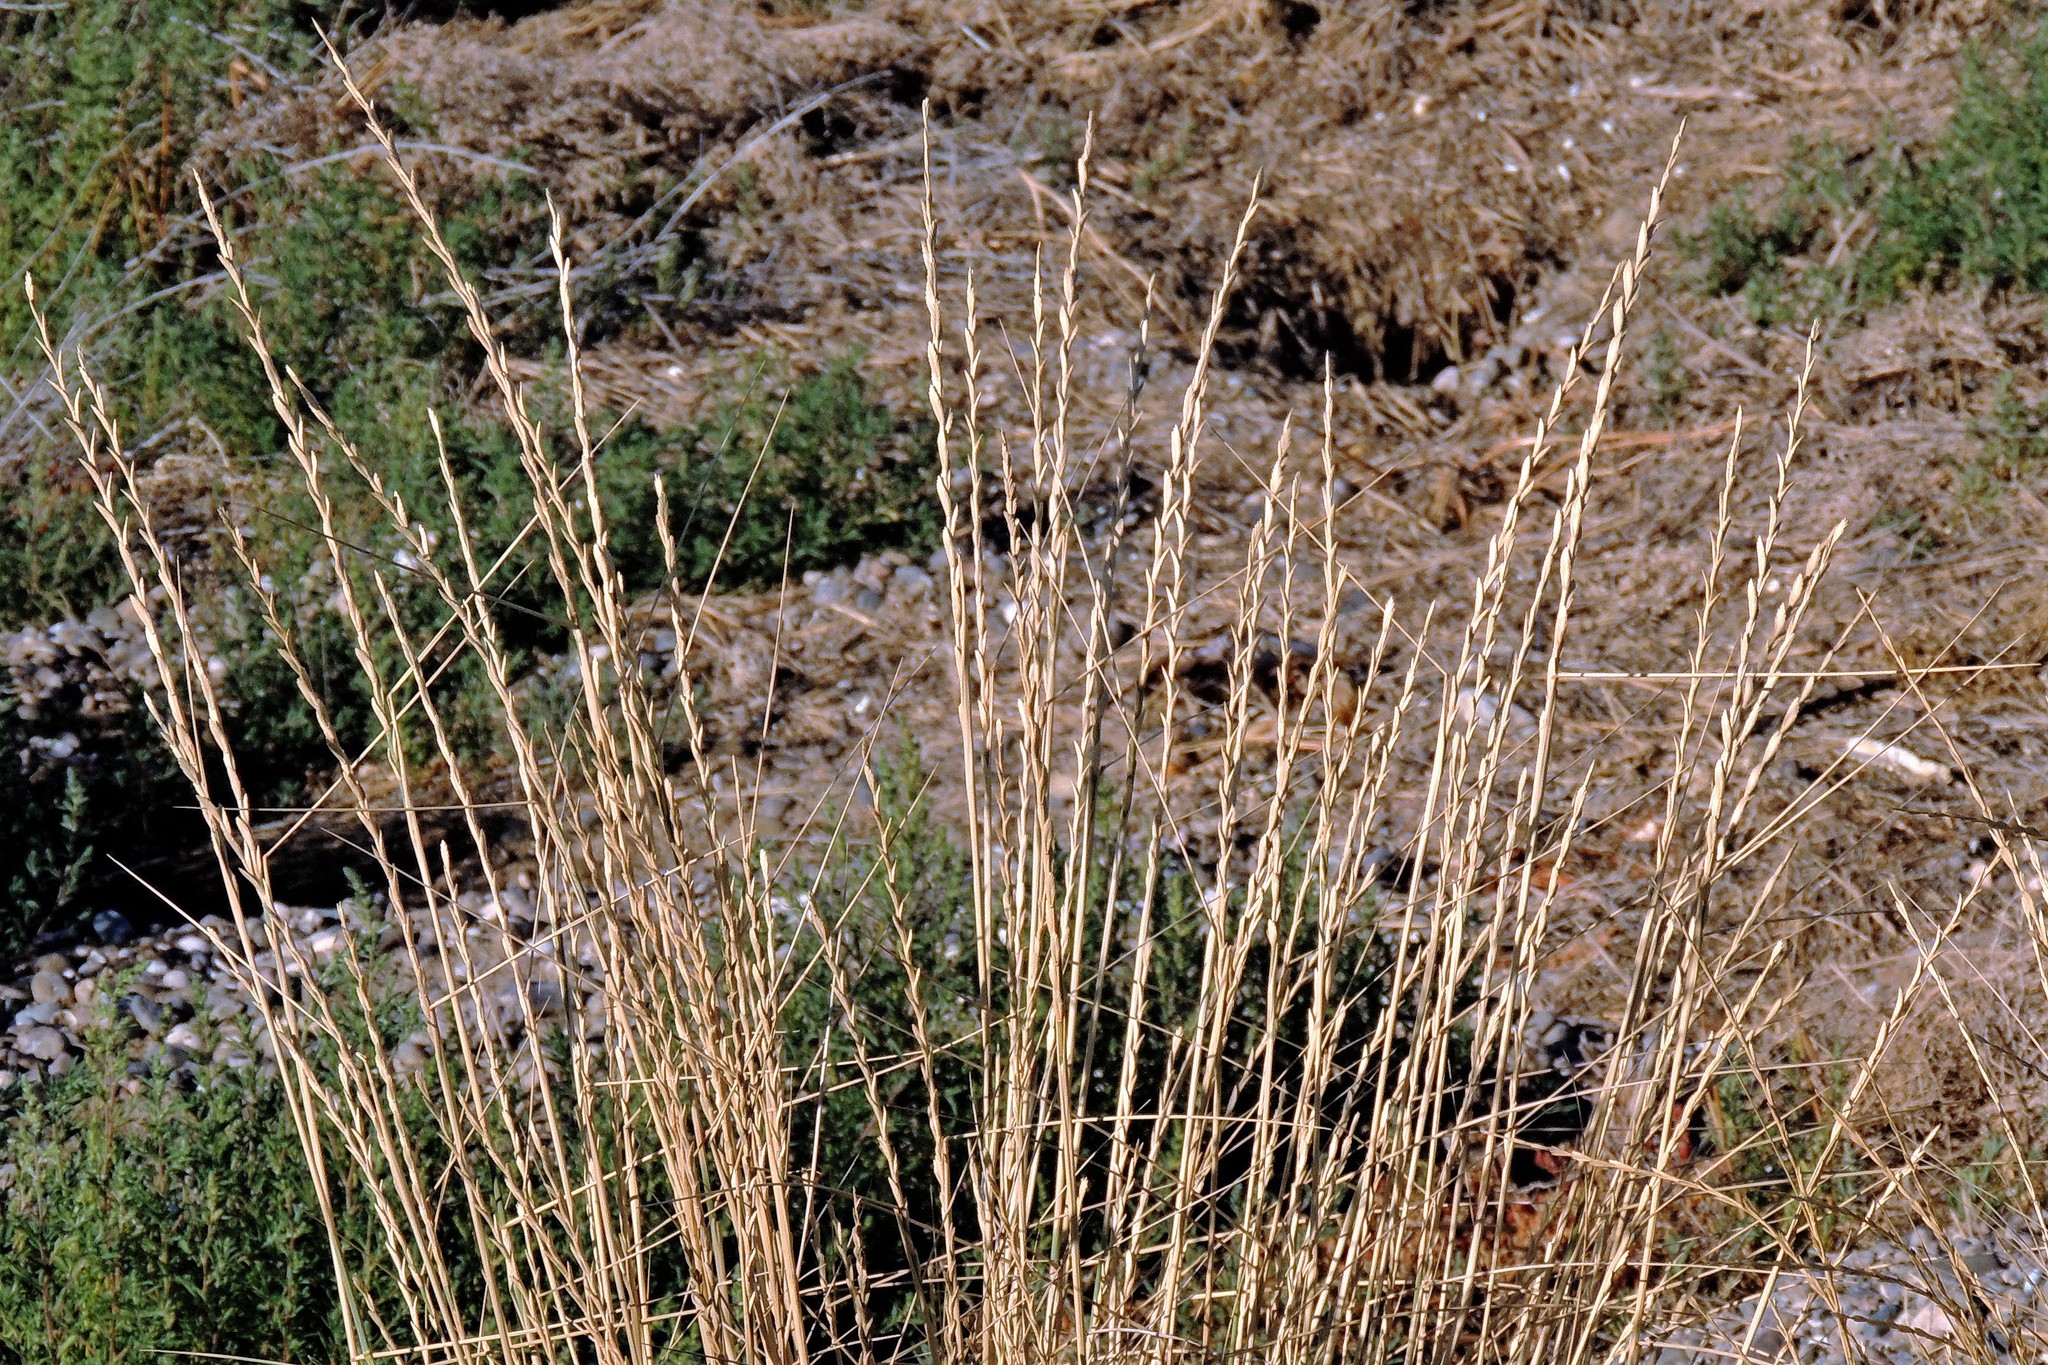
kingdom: Plantae
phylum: Tracheophyta
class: Liliopsida
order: Poales
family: Poaceae
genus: Thinopyrum
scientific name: Thinopyrum obtusiflorum
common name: Eurasian quackgrass
